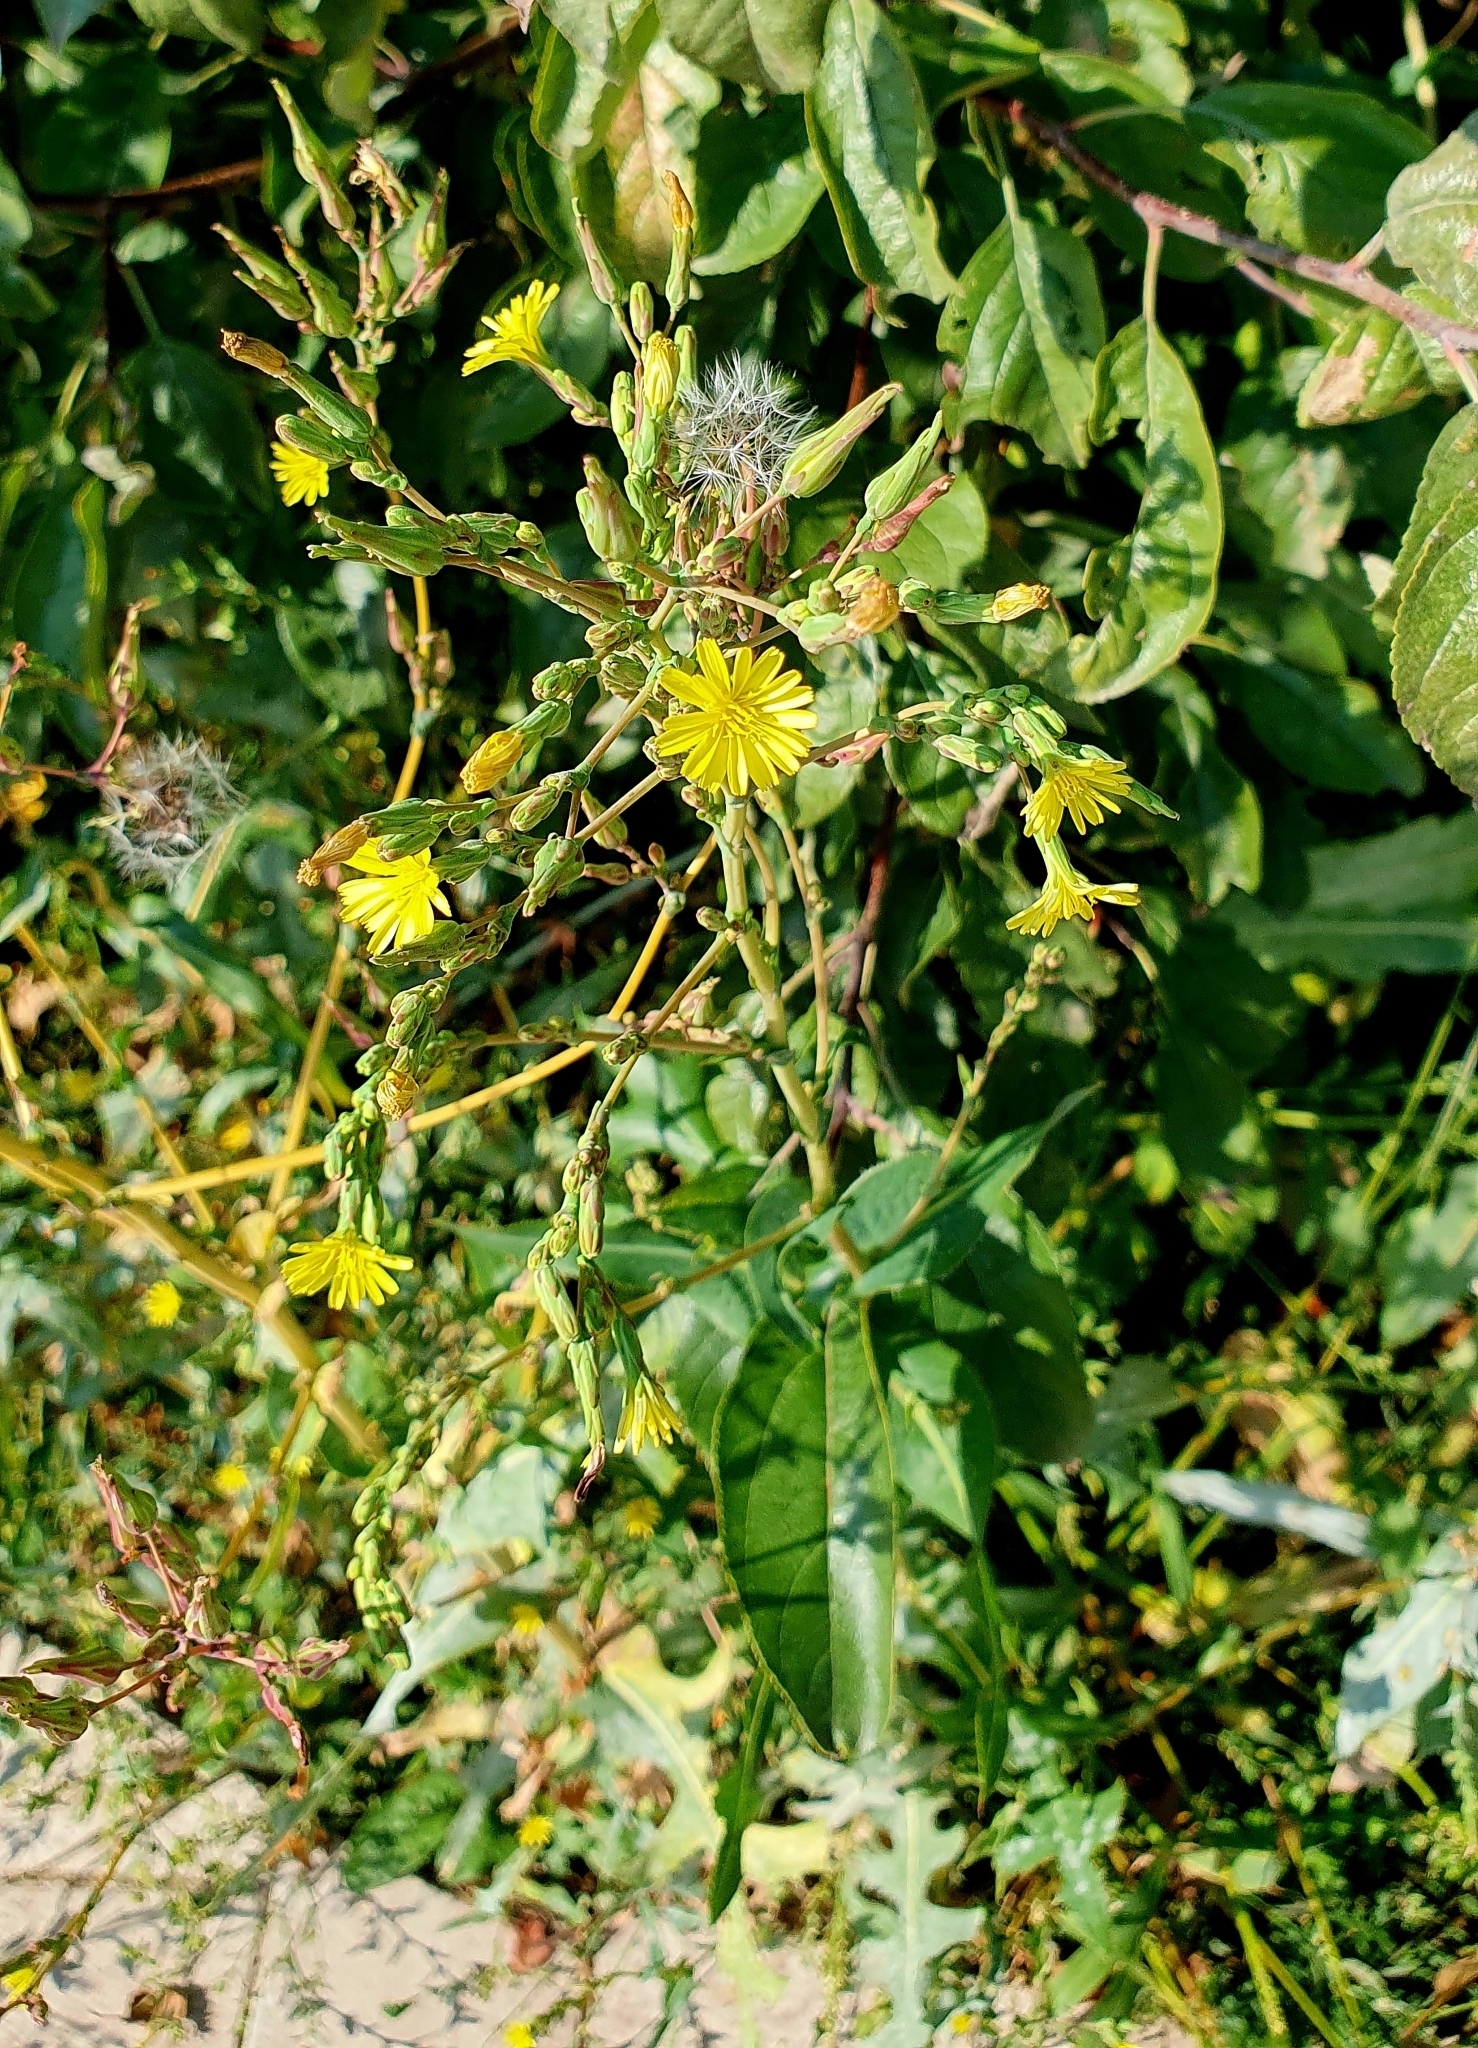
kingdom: Plantae
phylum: Tracheophyta
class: Magnoliopsida
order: Asterales
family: Asteraceae
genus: Lactuca
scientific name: Lactuca serriola
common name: Prickly lettuce
